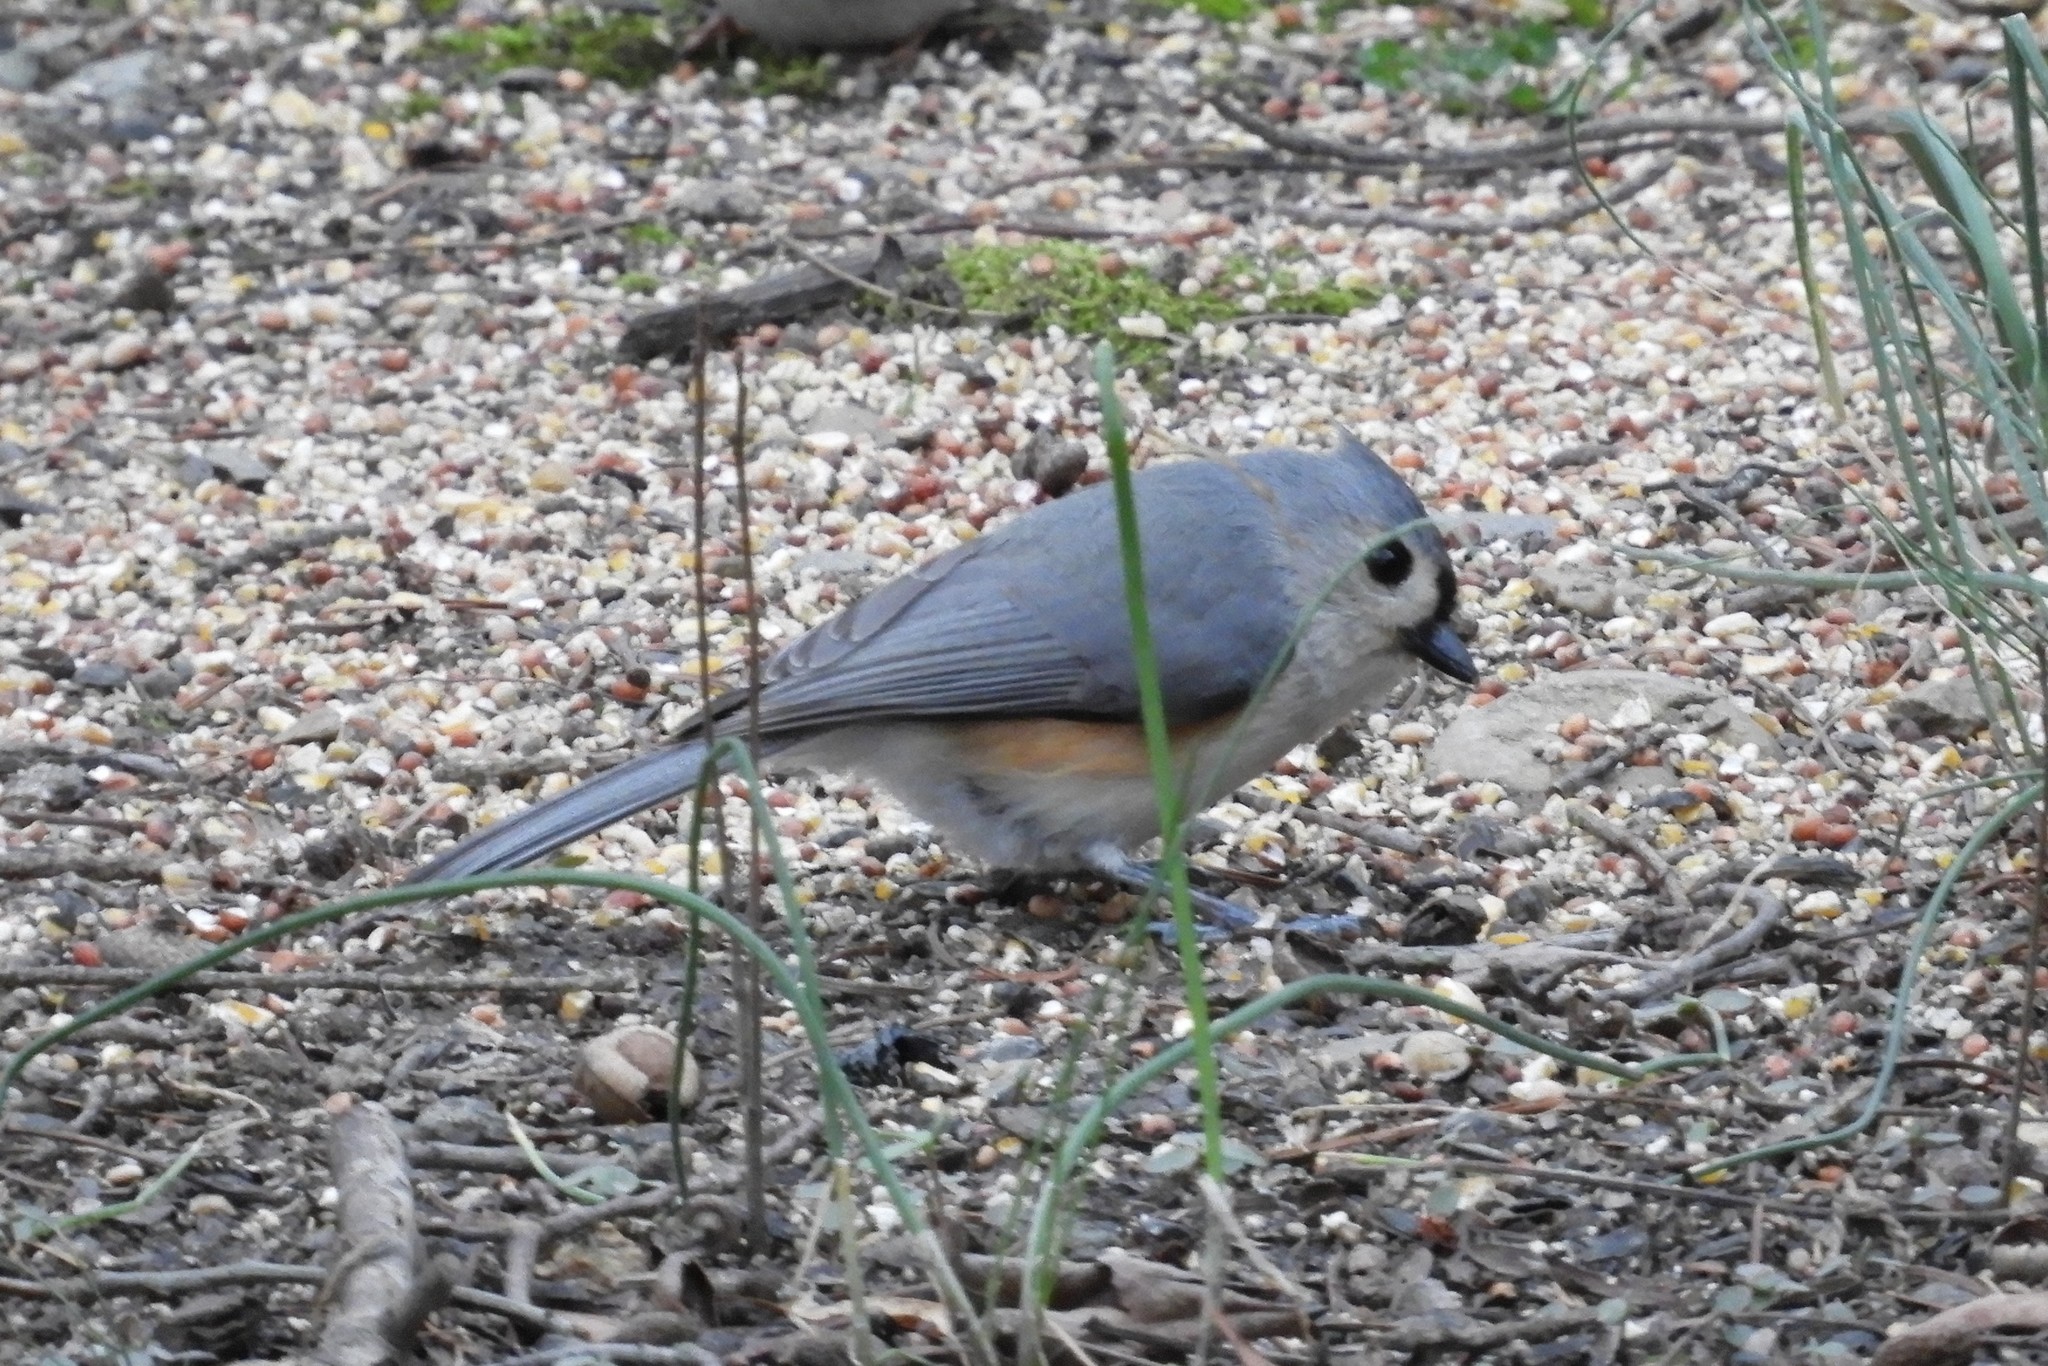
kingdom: Animalia
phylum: Chordata
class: Aves
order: Passeriformes
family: Paridae
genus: Baeolophus
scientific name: Baeolophus bicolor
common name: Tufted titmouse
